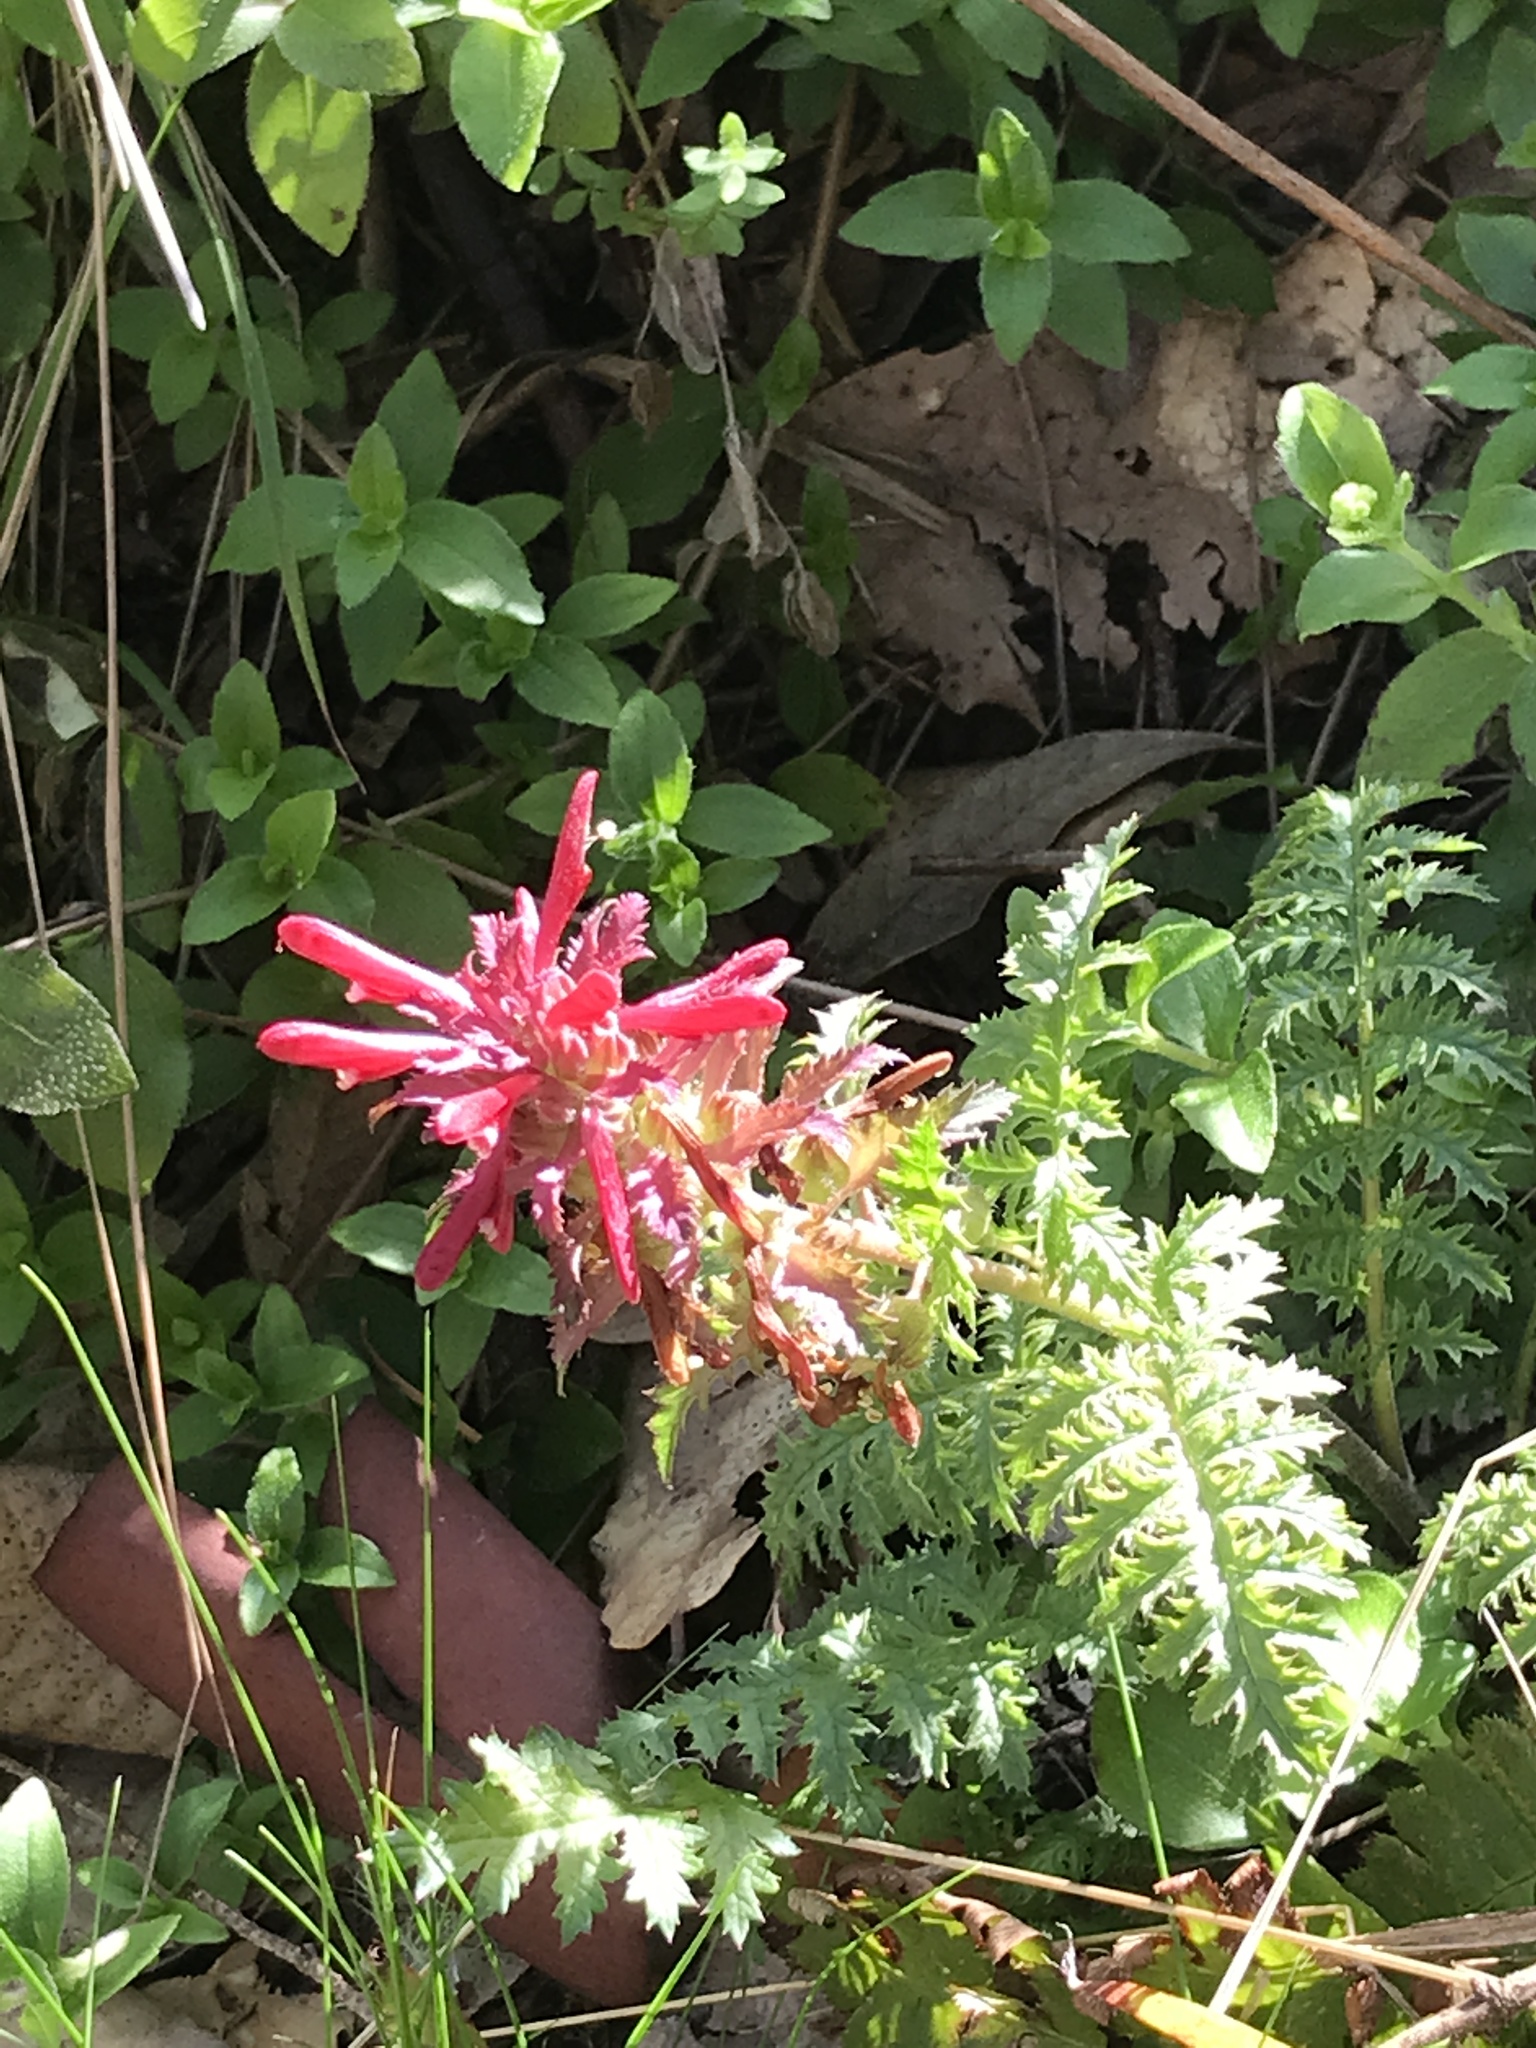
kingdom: Plantae
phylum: Tracheophyta
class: Magnoliopsida
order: Lamiales
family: Orobanchaceae
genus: Pedicularis
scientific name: Pedicularis densiflora
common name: Indian warrior
